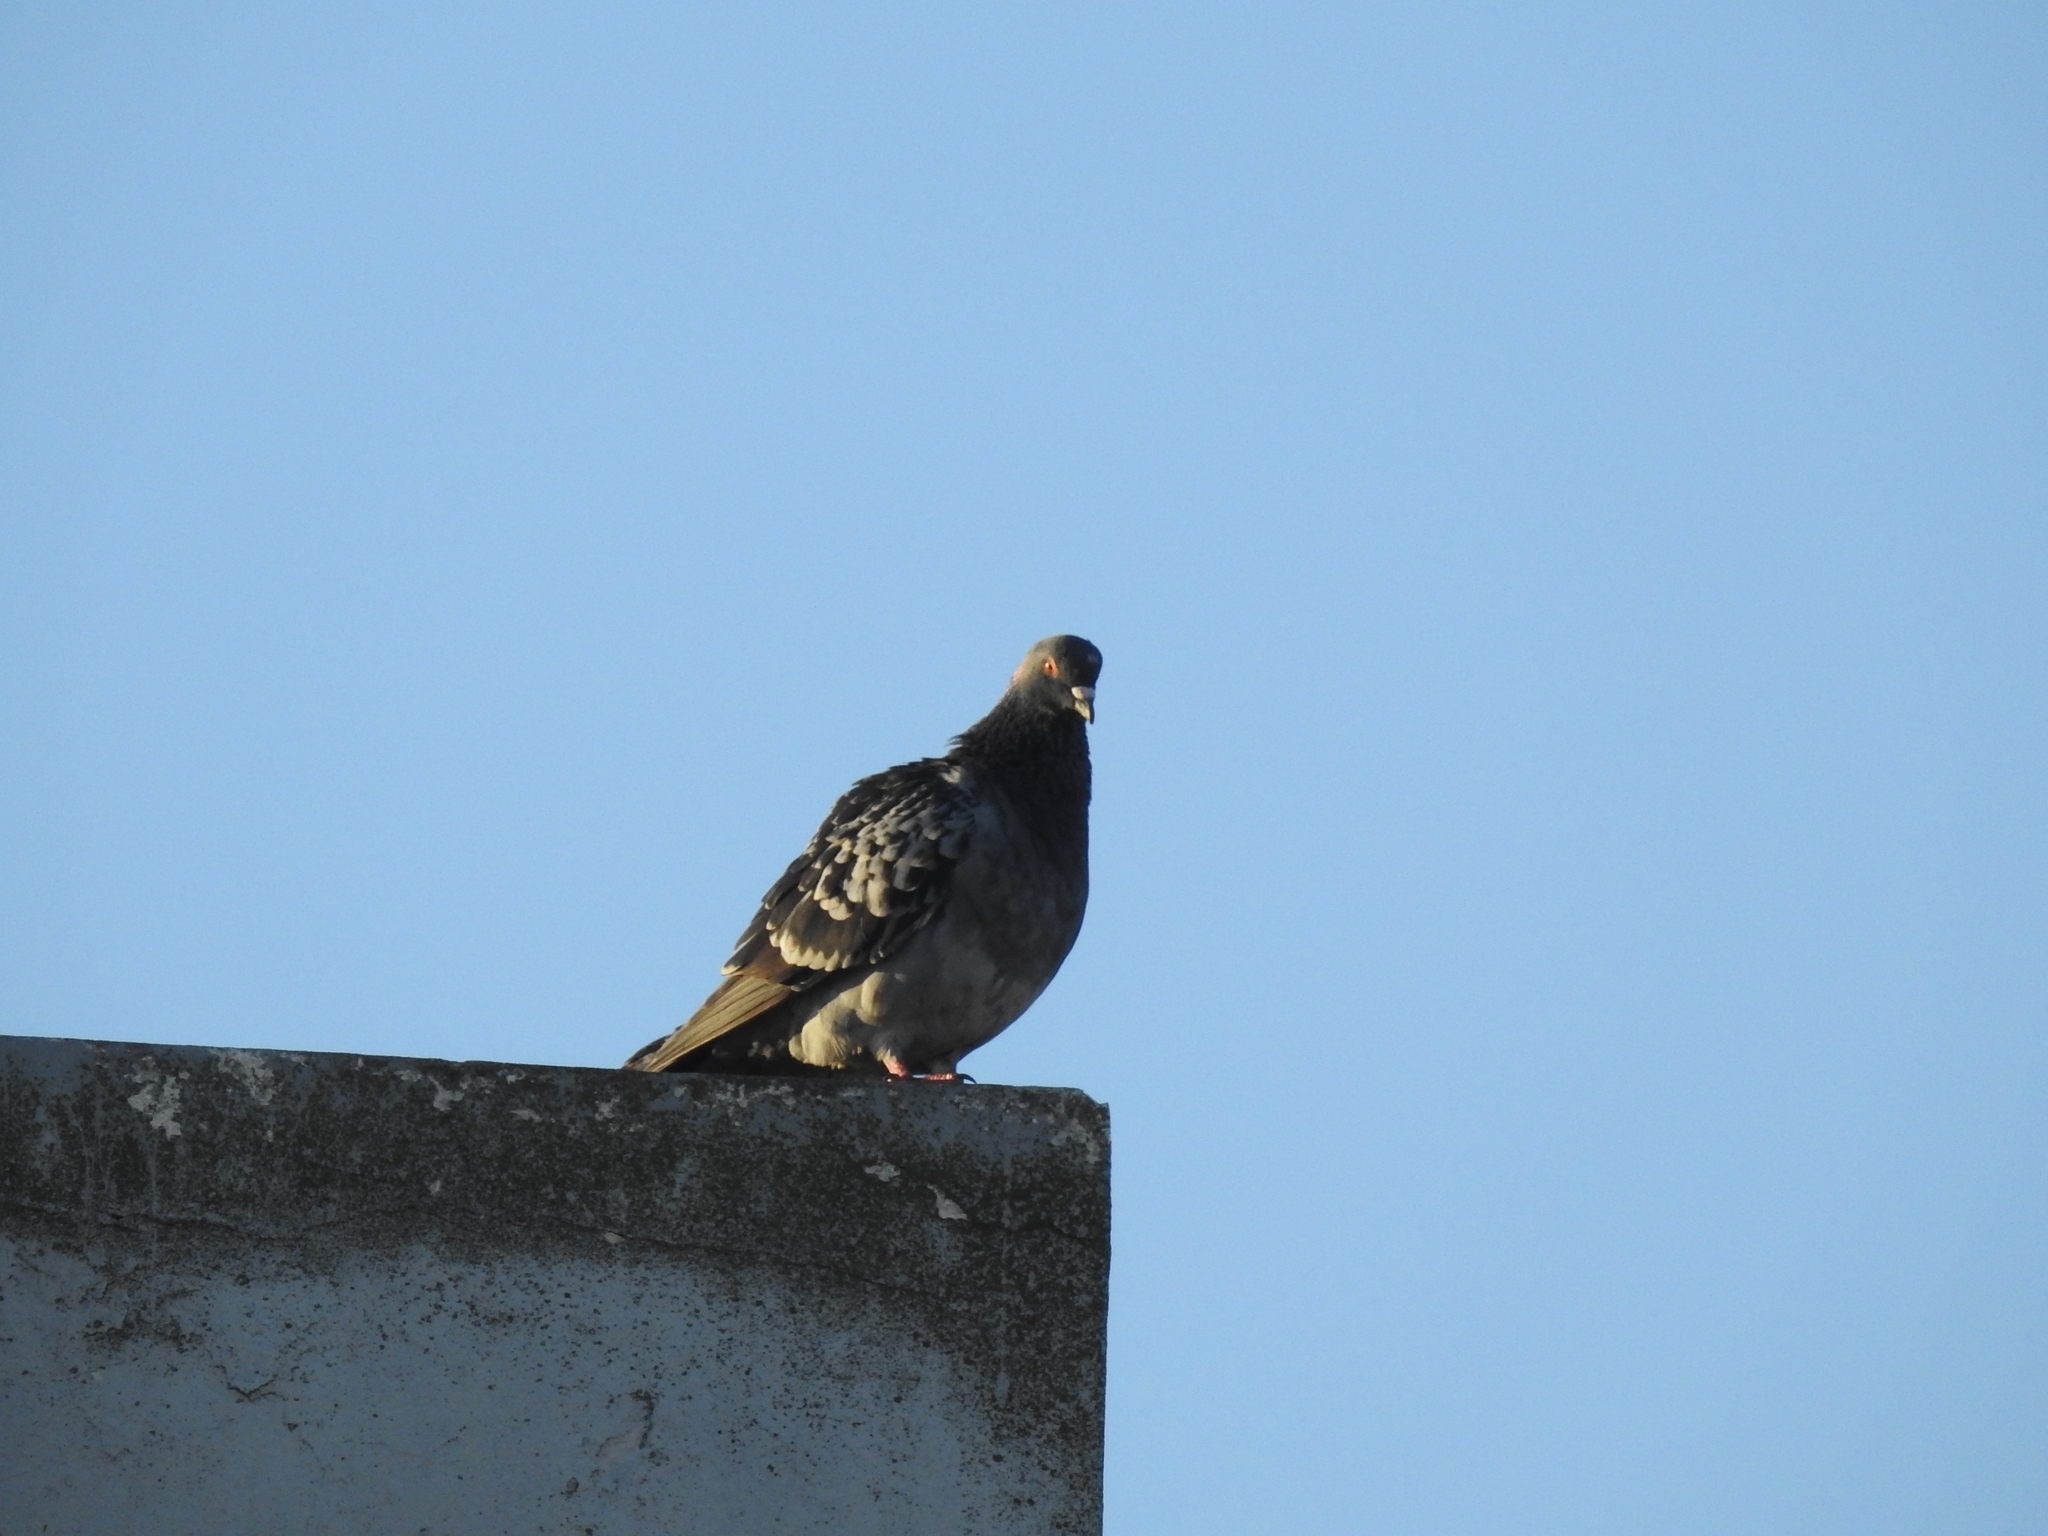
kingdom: Animalia
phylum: Chordata
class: Aves
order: Columbiformes
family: Columbidae
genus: Columba
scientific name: Columba livia
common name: Rock pigeon
